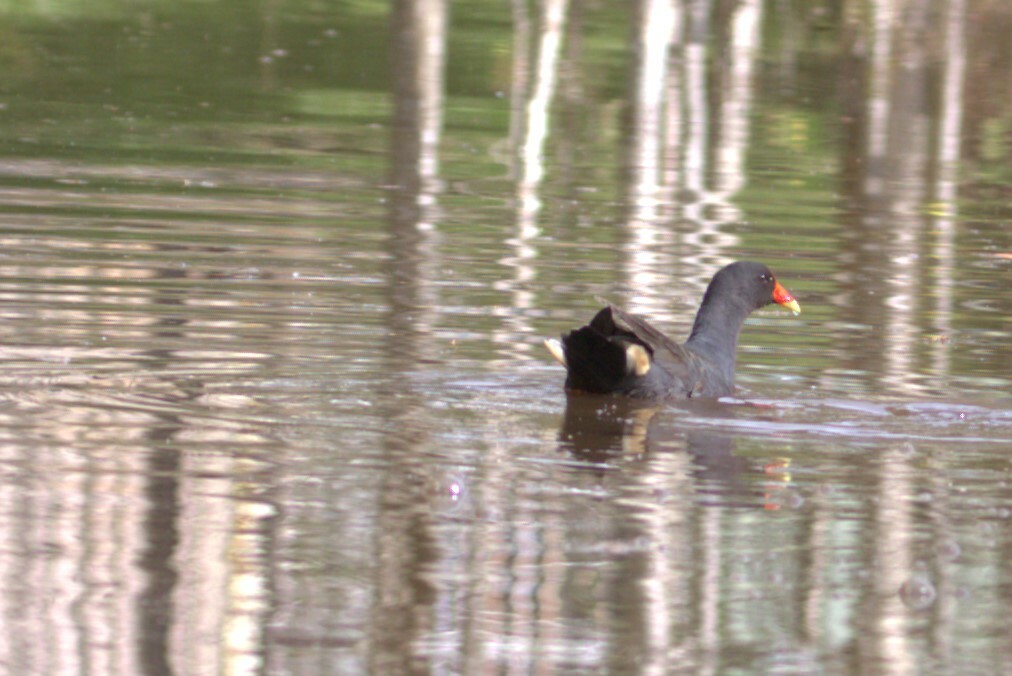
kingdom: Animalia
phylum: Chordata
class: Aves
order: Gruiformes
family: Rallidae
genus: Gallinula
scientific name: Gallinula tenebrosa
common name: Dusky moorhen
